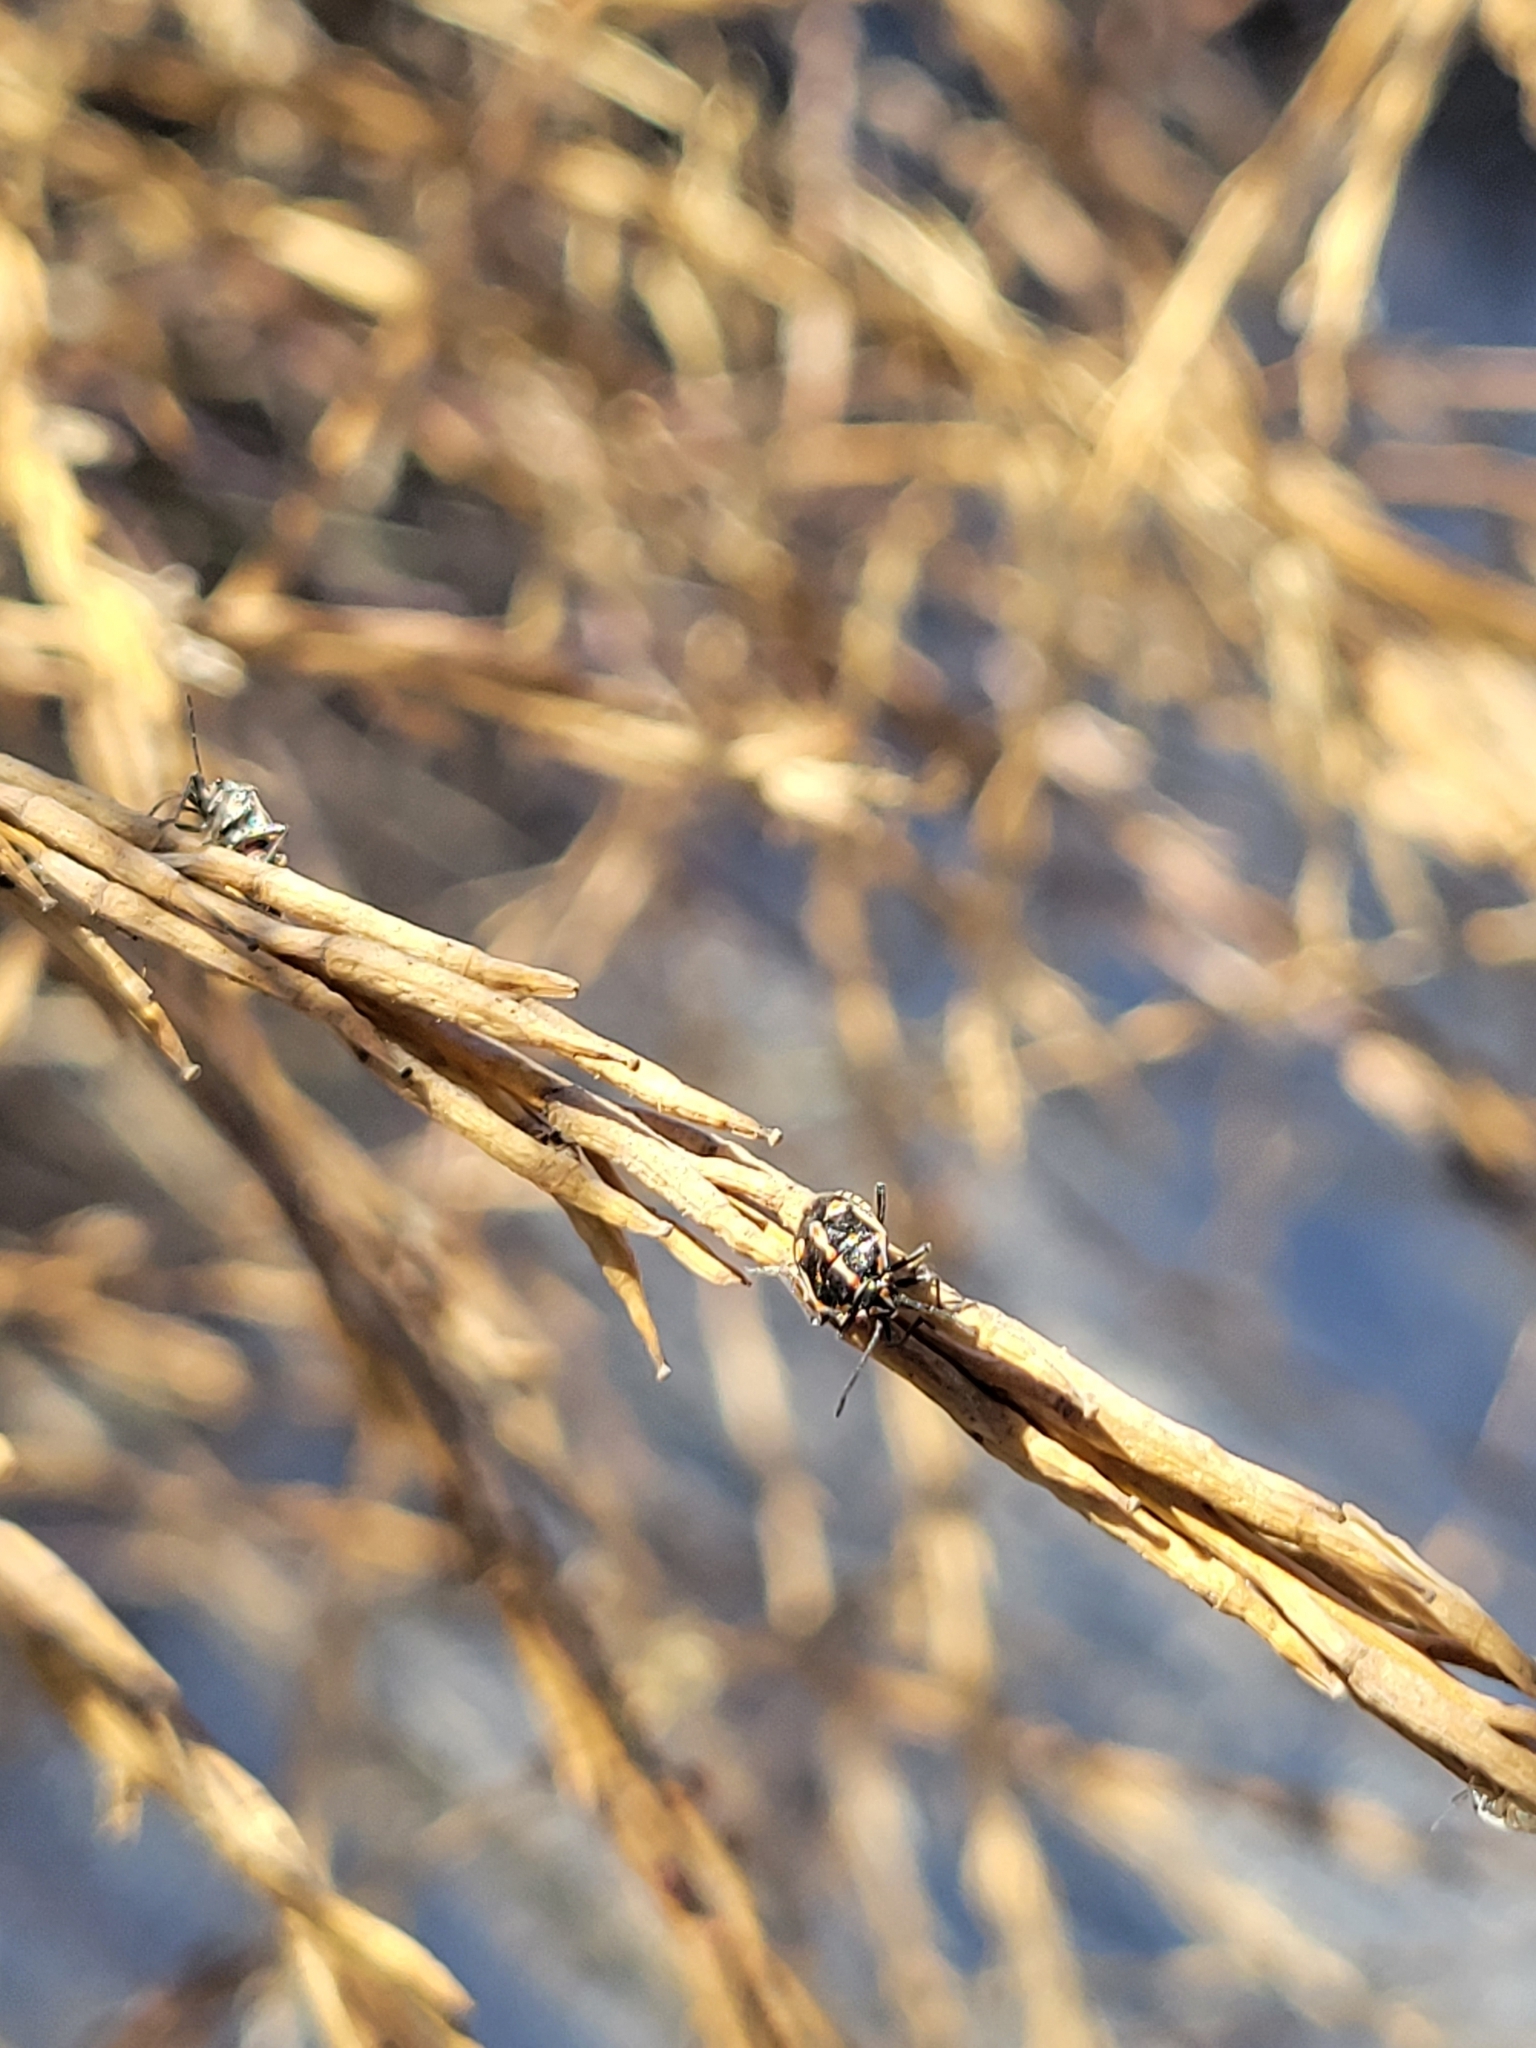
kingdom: Animalia
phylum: Arthropoda
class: Insecta
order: Hemiptera
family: Pentatomidae
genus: Bagrada
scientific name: Bagrada hilaris
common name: Bagrada bug
